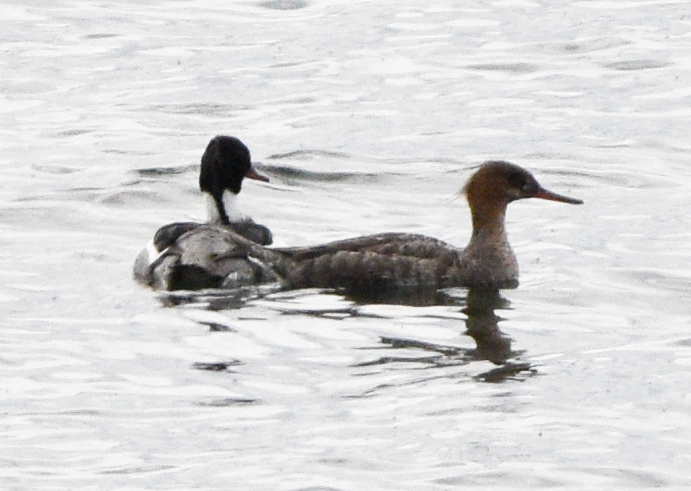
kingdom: Animalia
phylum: Chordata
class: Aves
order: Anseriformes
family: Anatidae
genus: Mergus
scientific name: Mergus serrator
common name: Red-breasted merganser
